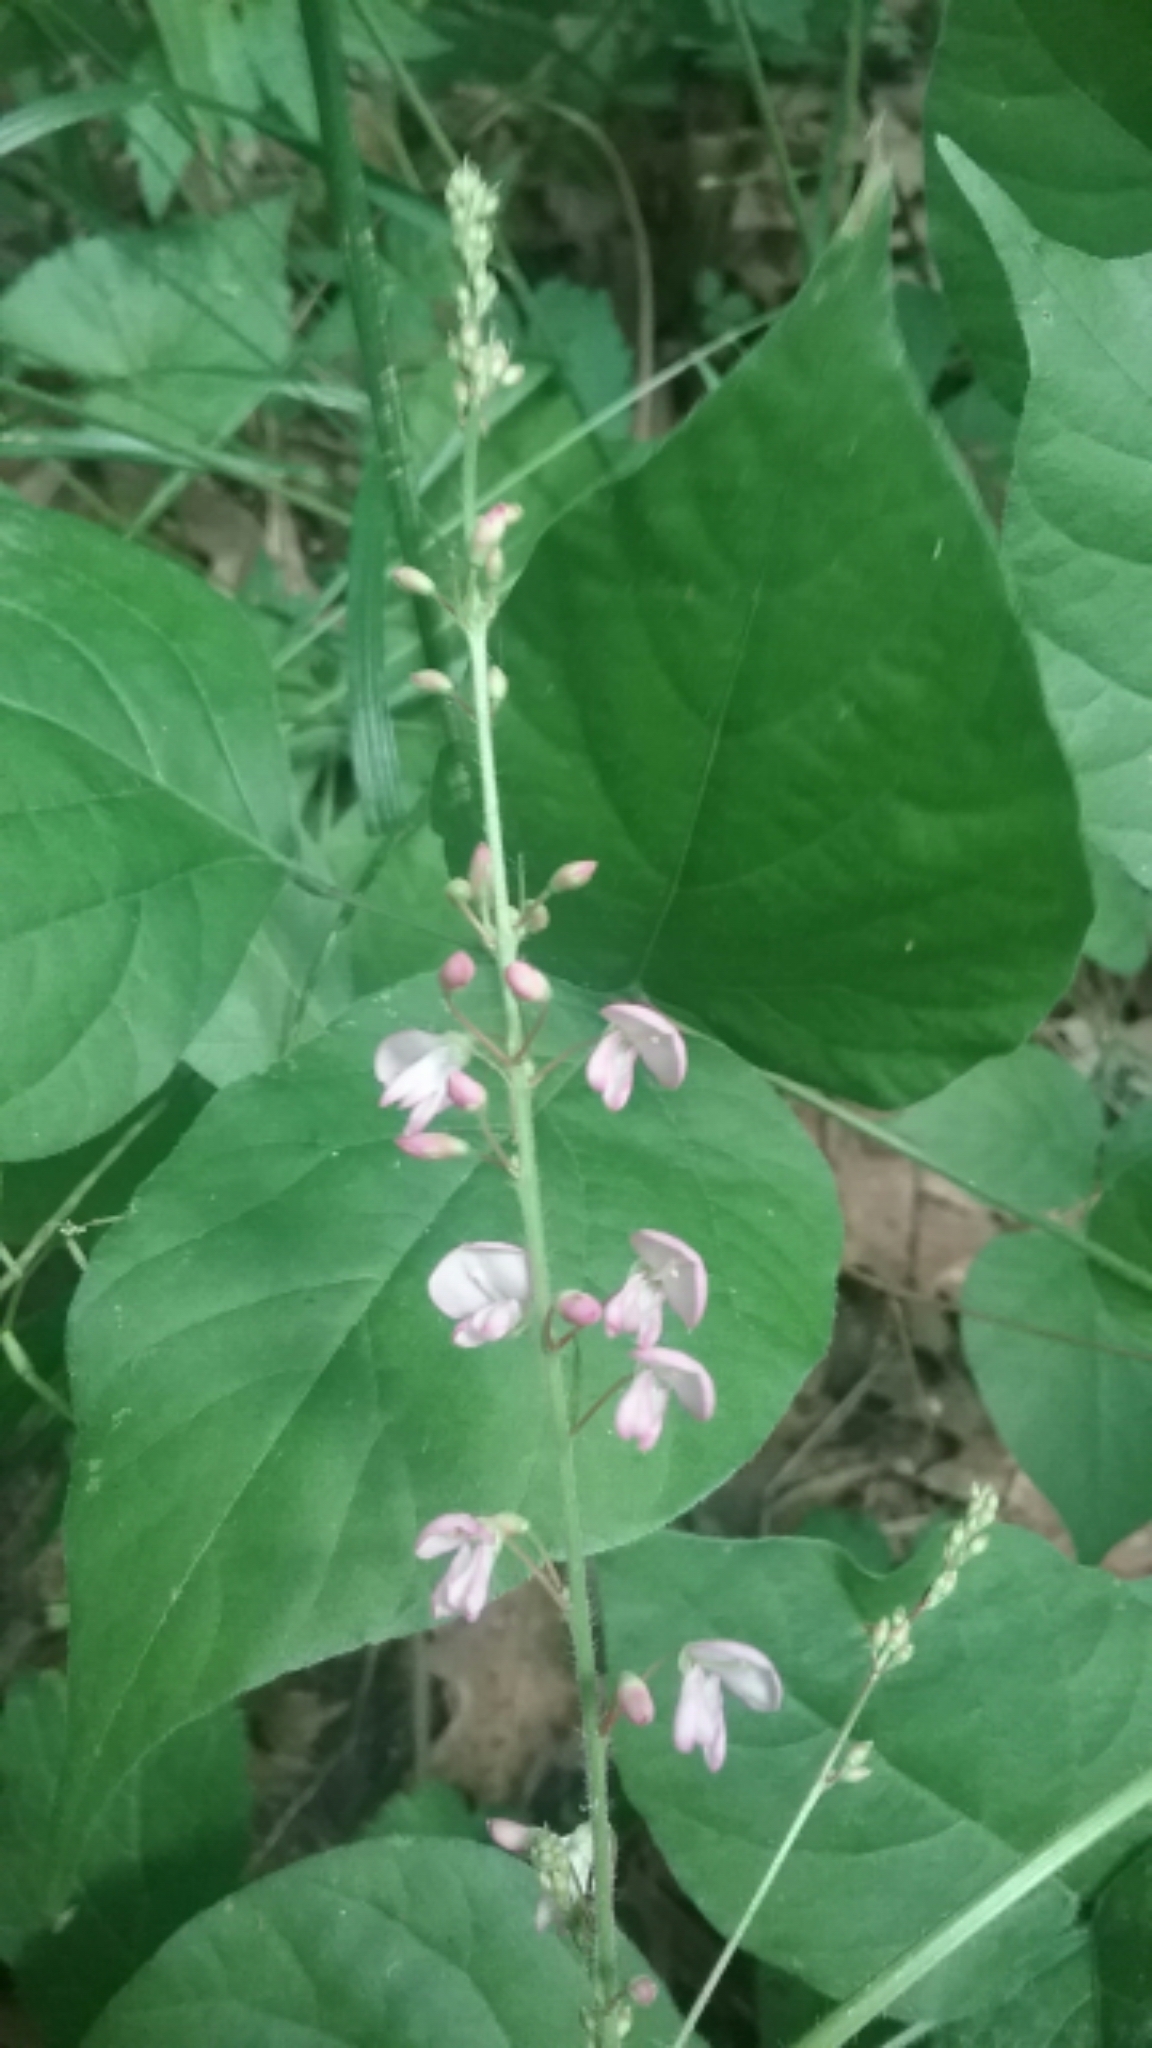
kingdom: Plantae
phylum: Tracheophyta
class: Magnoliopsida
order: Fabales
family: Fabaceae
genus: Hylodesmum
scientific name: Hylodesmum glutinosum
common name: Clustered-leaved tick-trefoil
